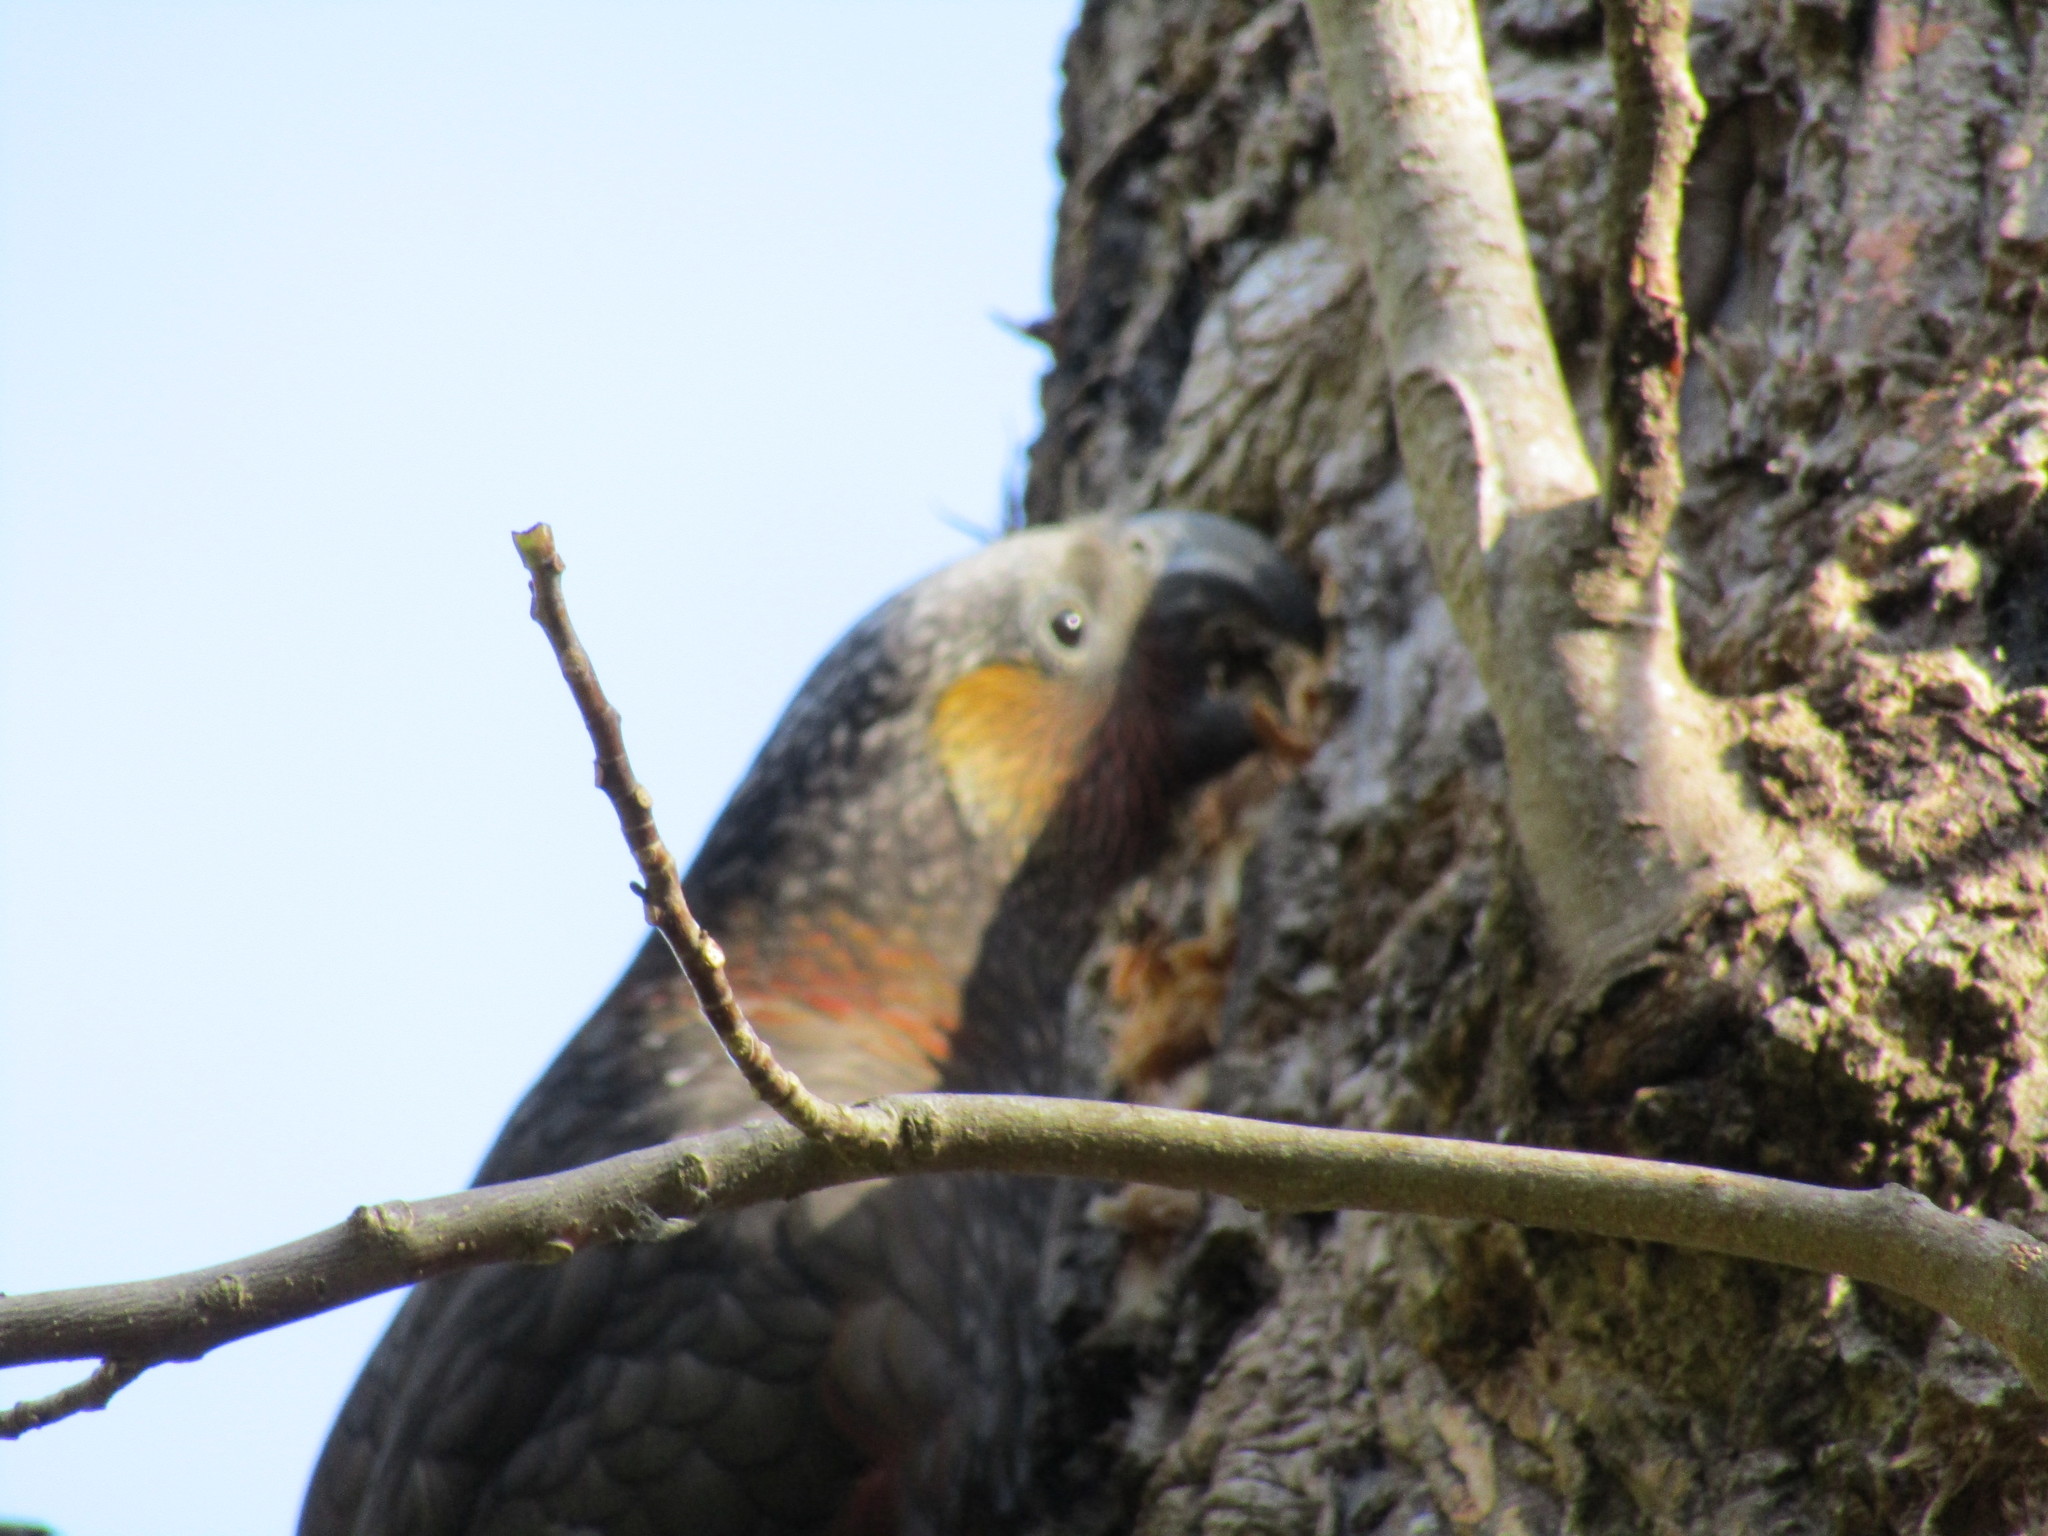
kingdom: Animalia
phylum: Chordata
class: Aves
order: Psittaciformes
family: Psittacidae
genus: Nestor
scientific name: Nestor meridionalis
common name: New zealand kaka
